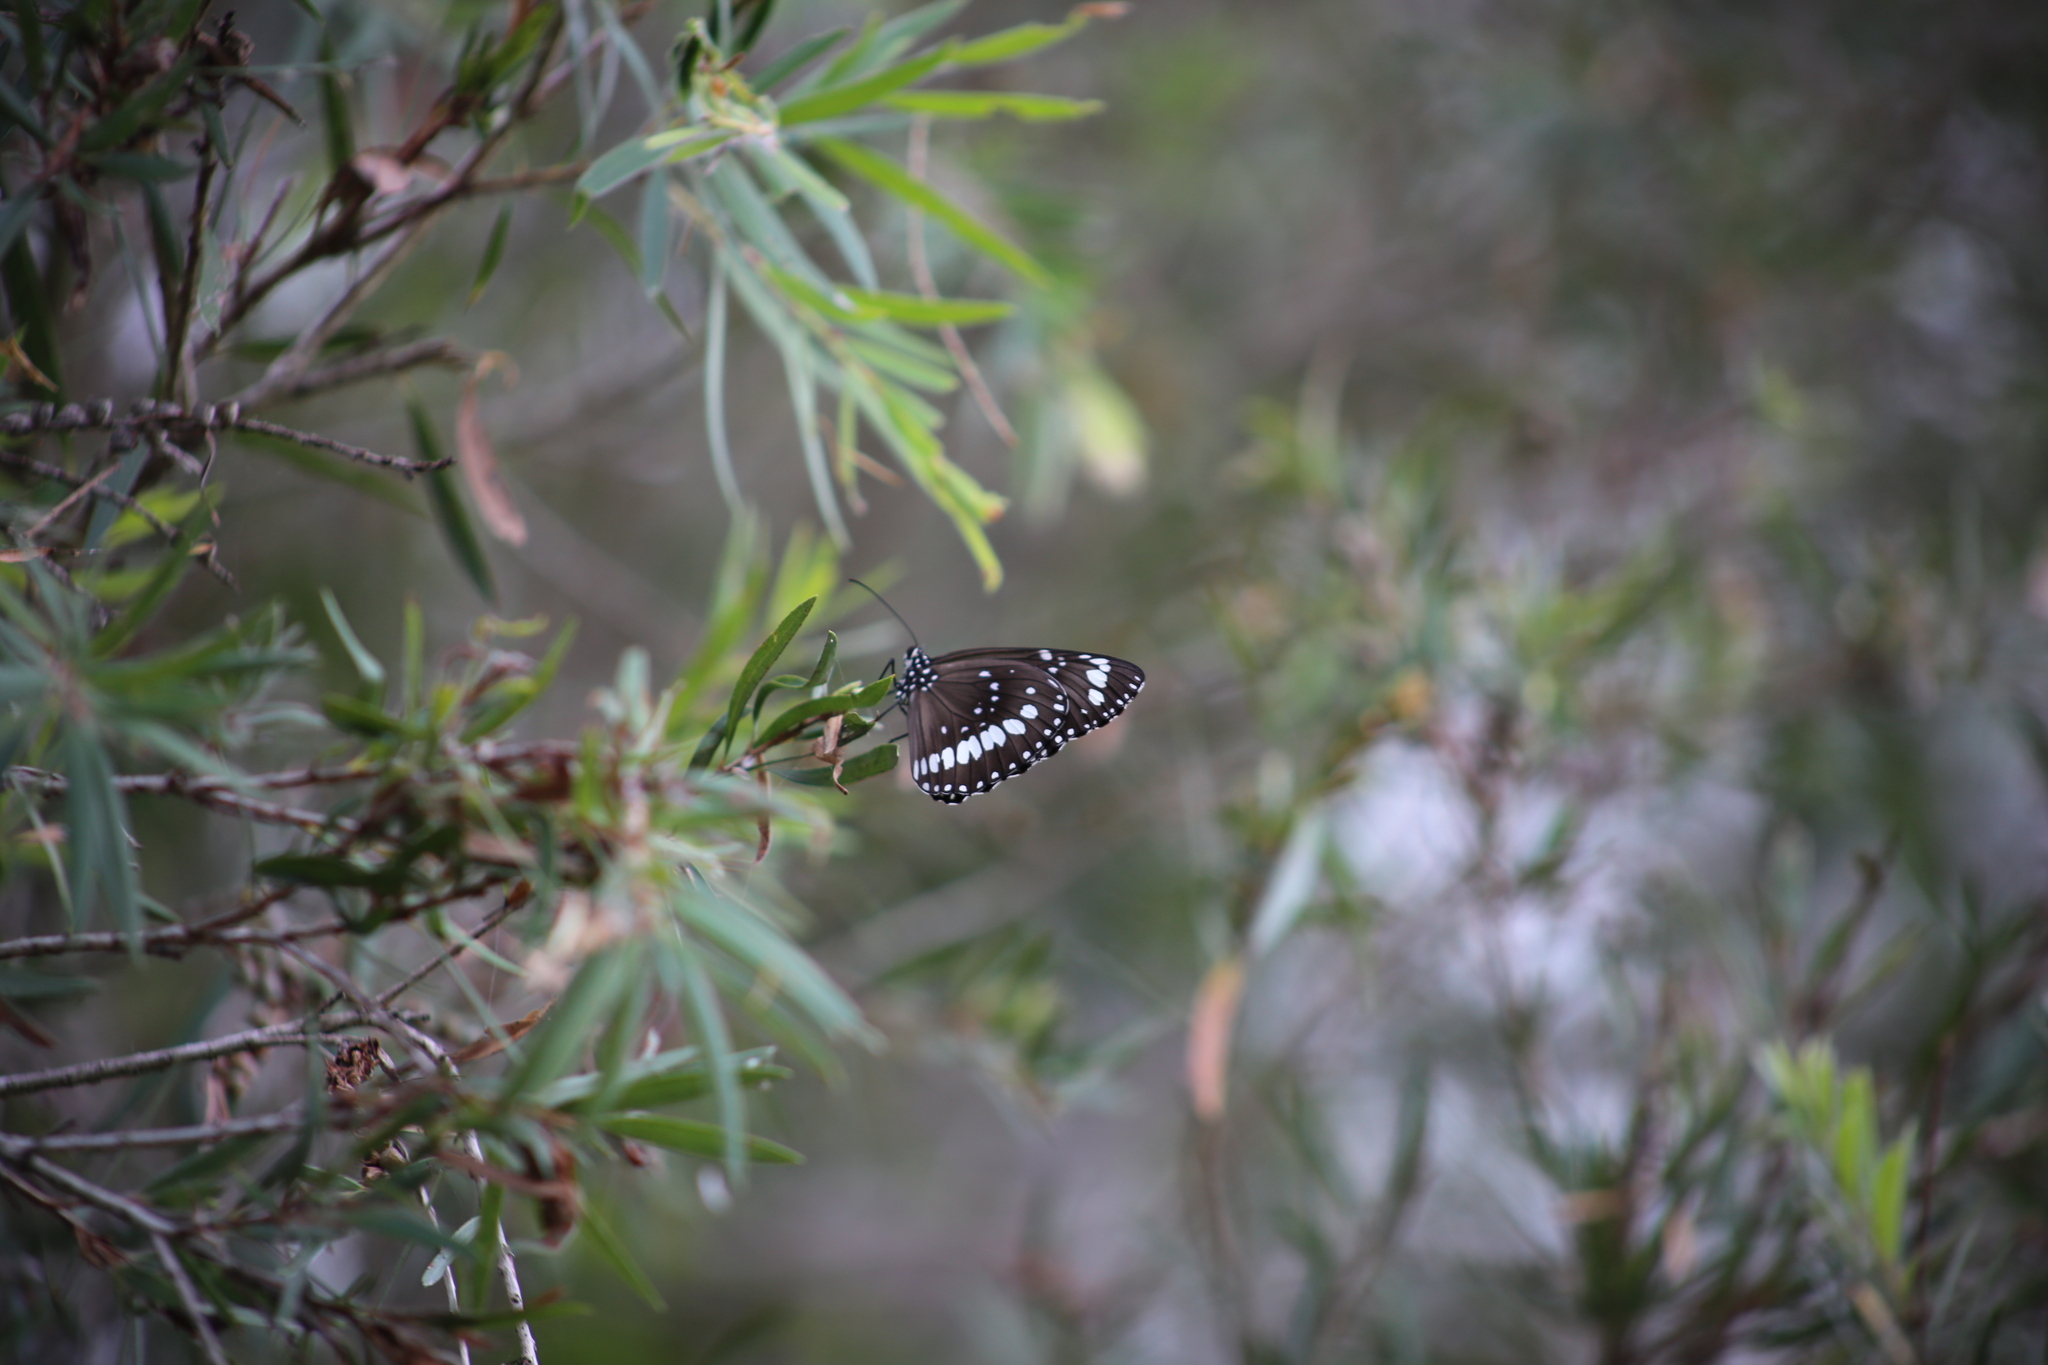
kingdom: Animalia
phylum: Arthropoda
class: Insecta
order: Lepidoptera
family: Nymphalidae
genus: Euploea
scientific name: Euploea core
